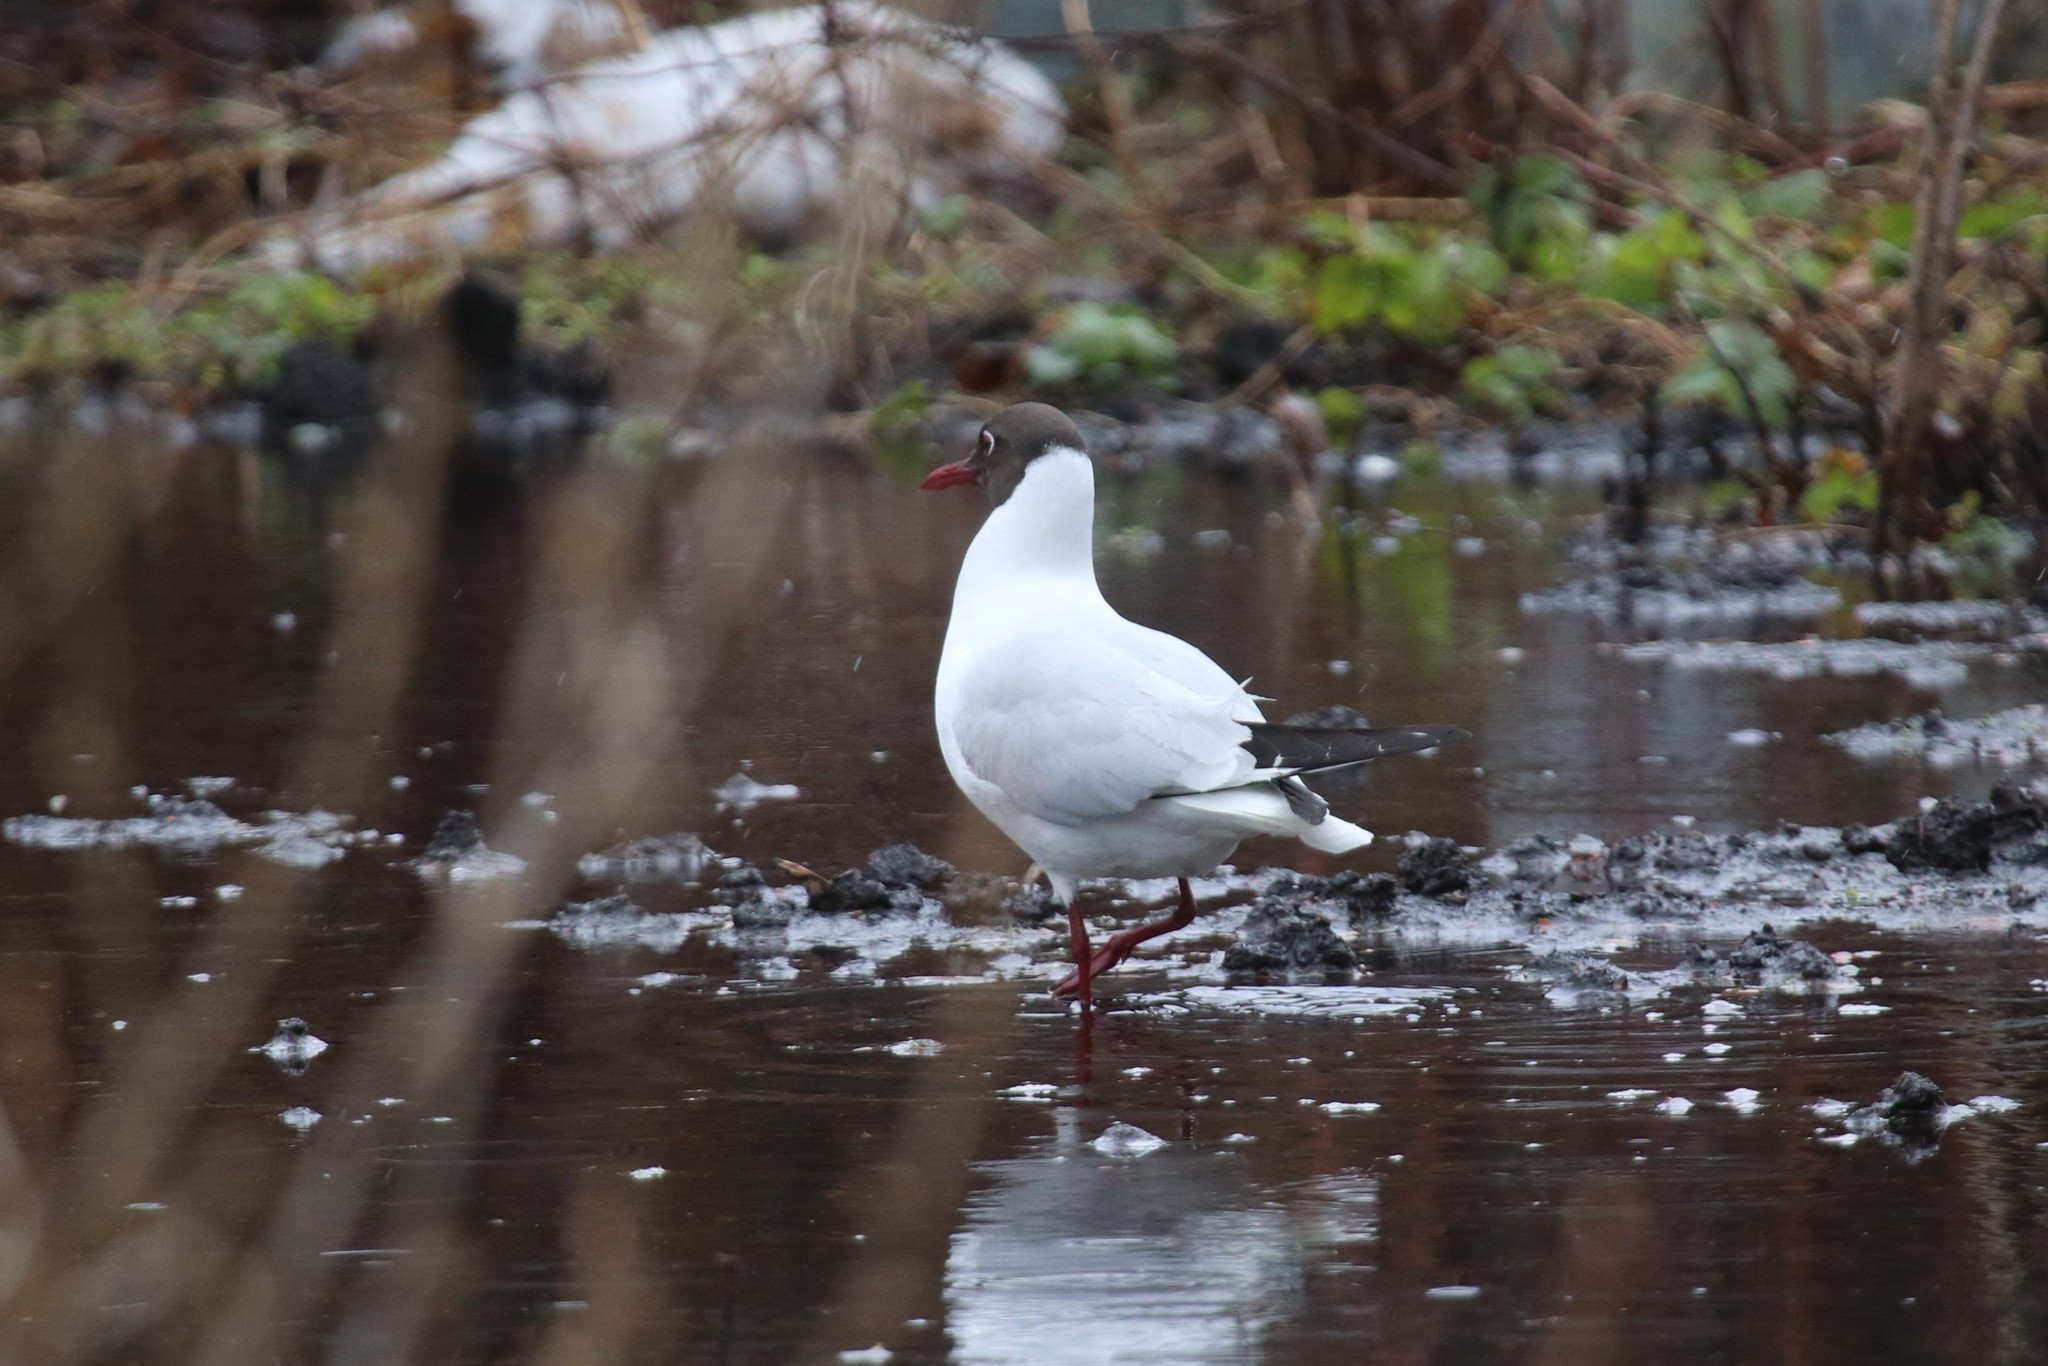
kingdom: Animalia
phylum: Chordata
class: Aves
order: Charadriiformes
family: Laridae
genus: Chroicocephalus
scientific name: Chroicocephalus ridibundus
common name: Black-headed gull
